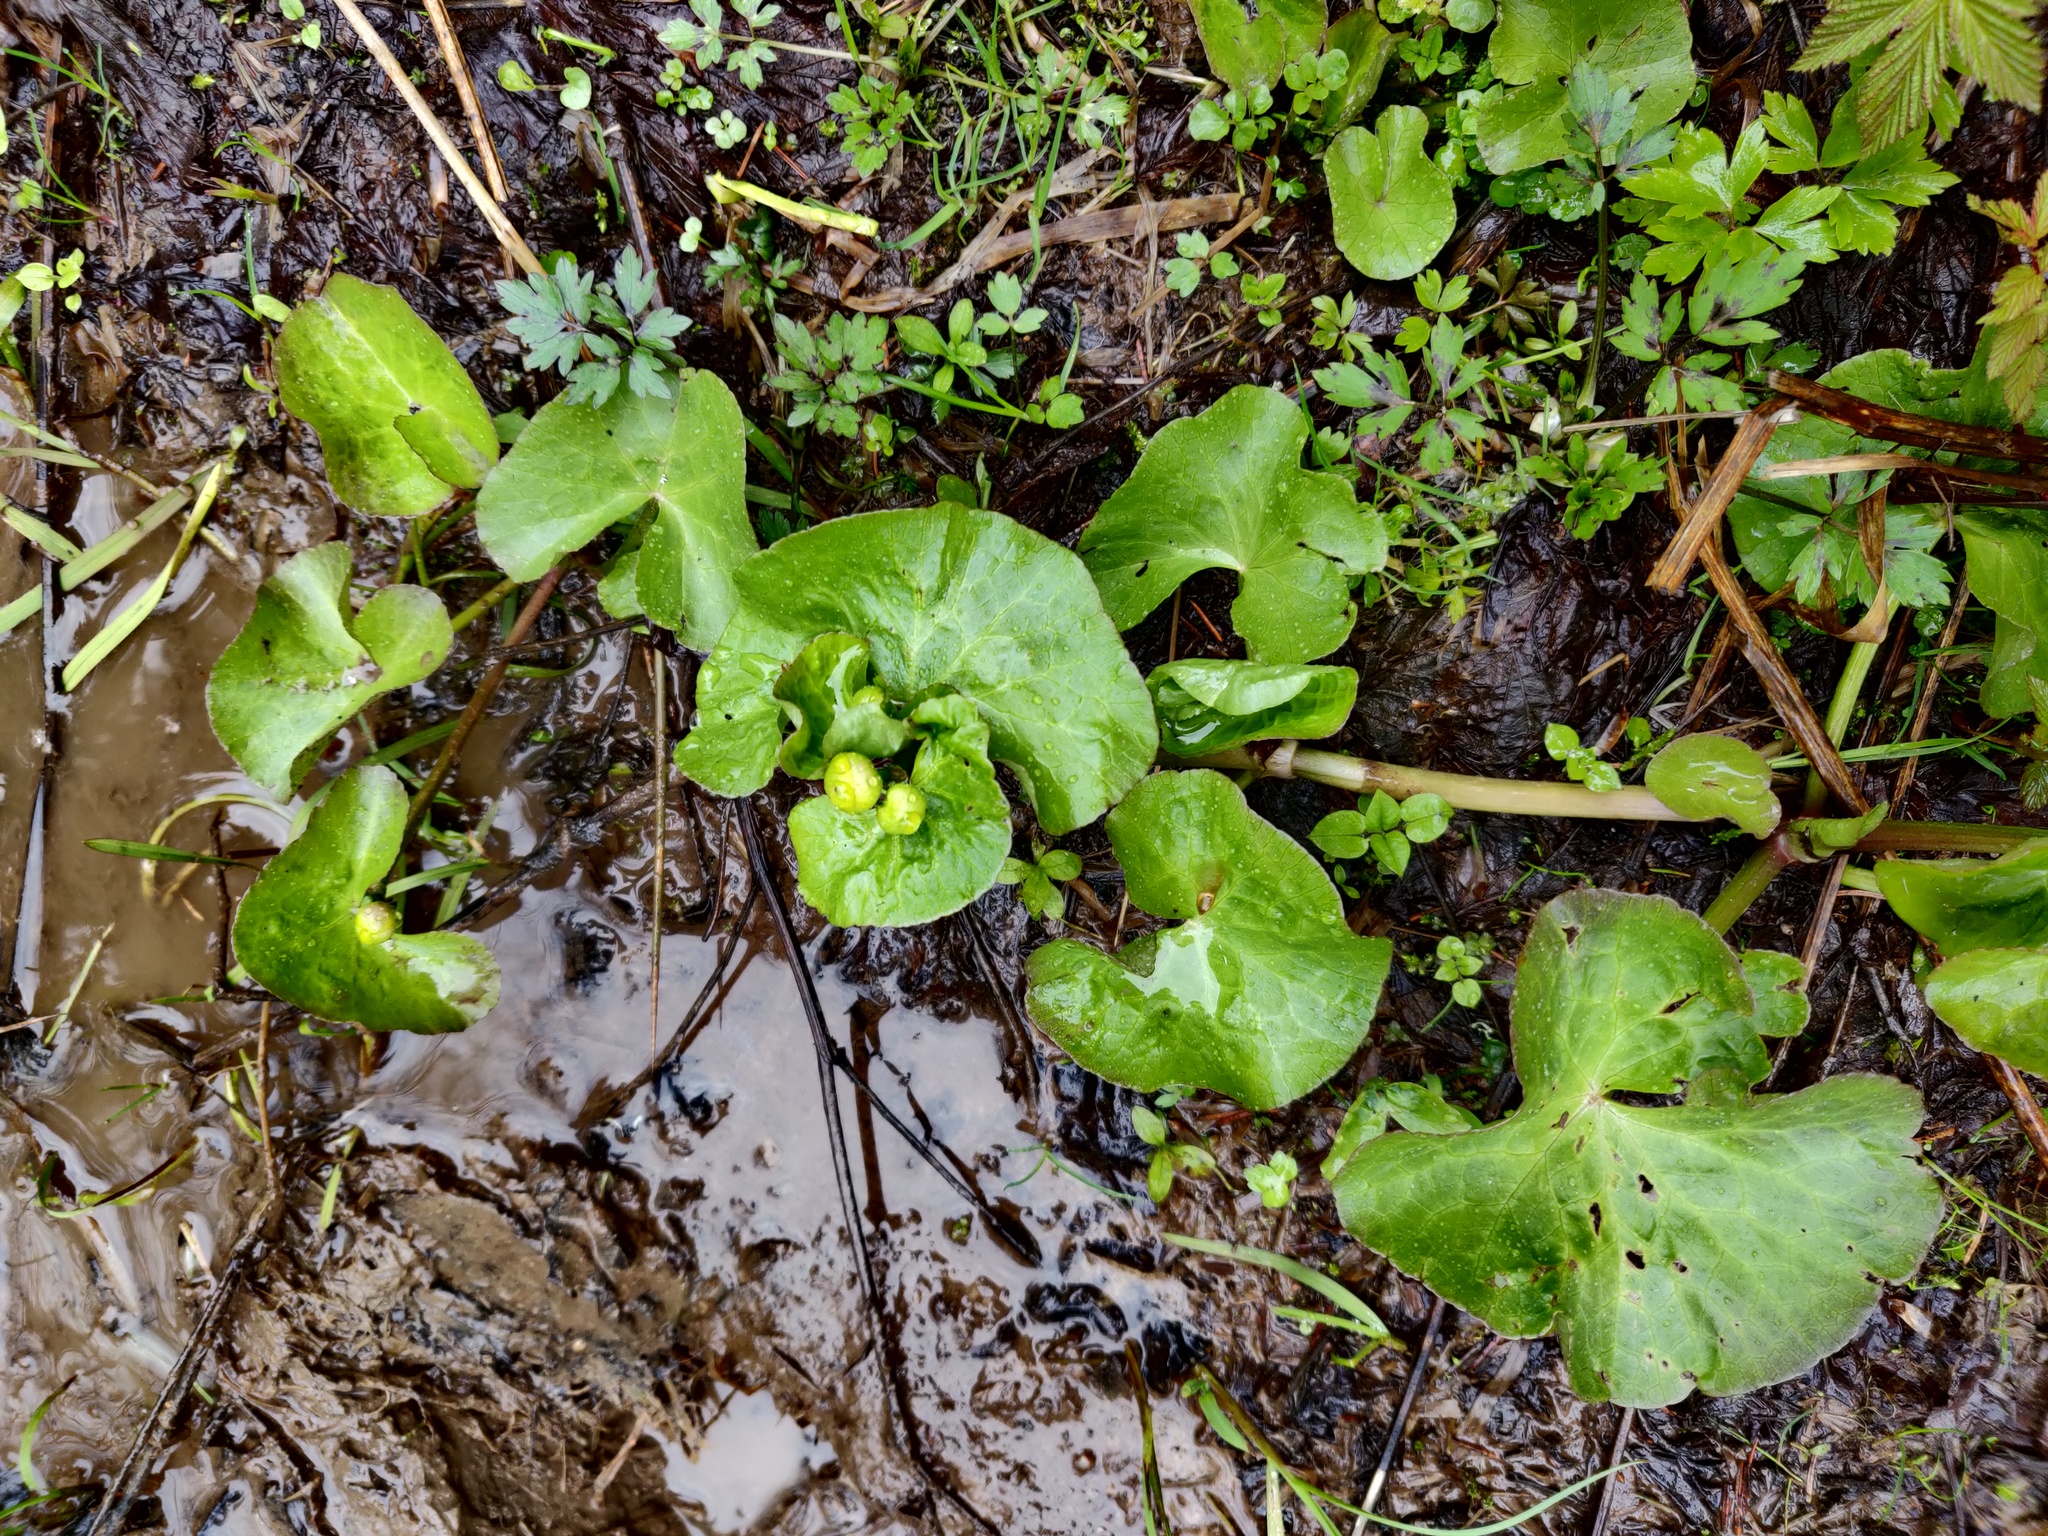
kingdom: Plantae
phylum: Tracheophyta
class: Magnoliopsida
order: Ranunculales
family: Ranunculaceae
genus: Caltha
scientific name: Caltha palustris
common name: Marsh marigold
